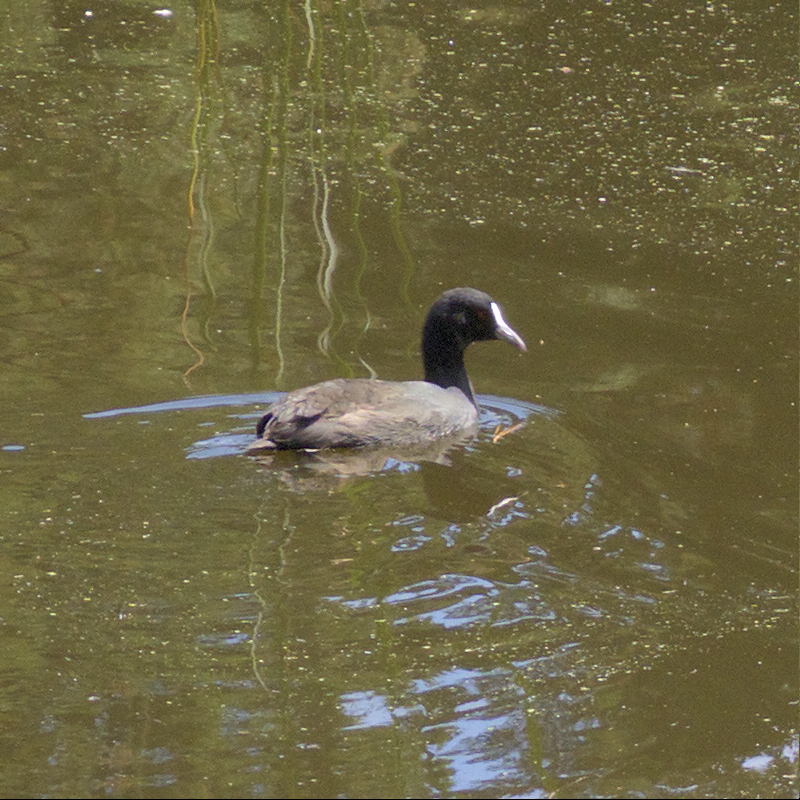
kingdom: Animalia
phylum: Chordata
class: Aves
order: Gruiformes
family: Rallidae
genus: Fulica
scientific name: Fulica atra
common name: Eurasian coot
